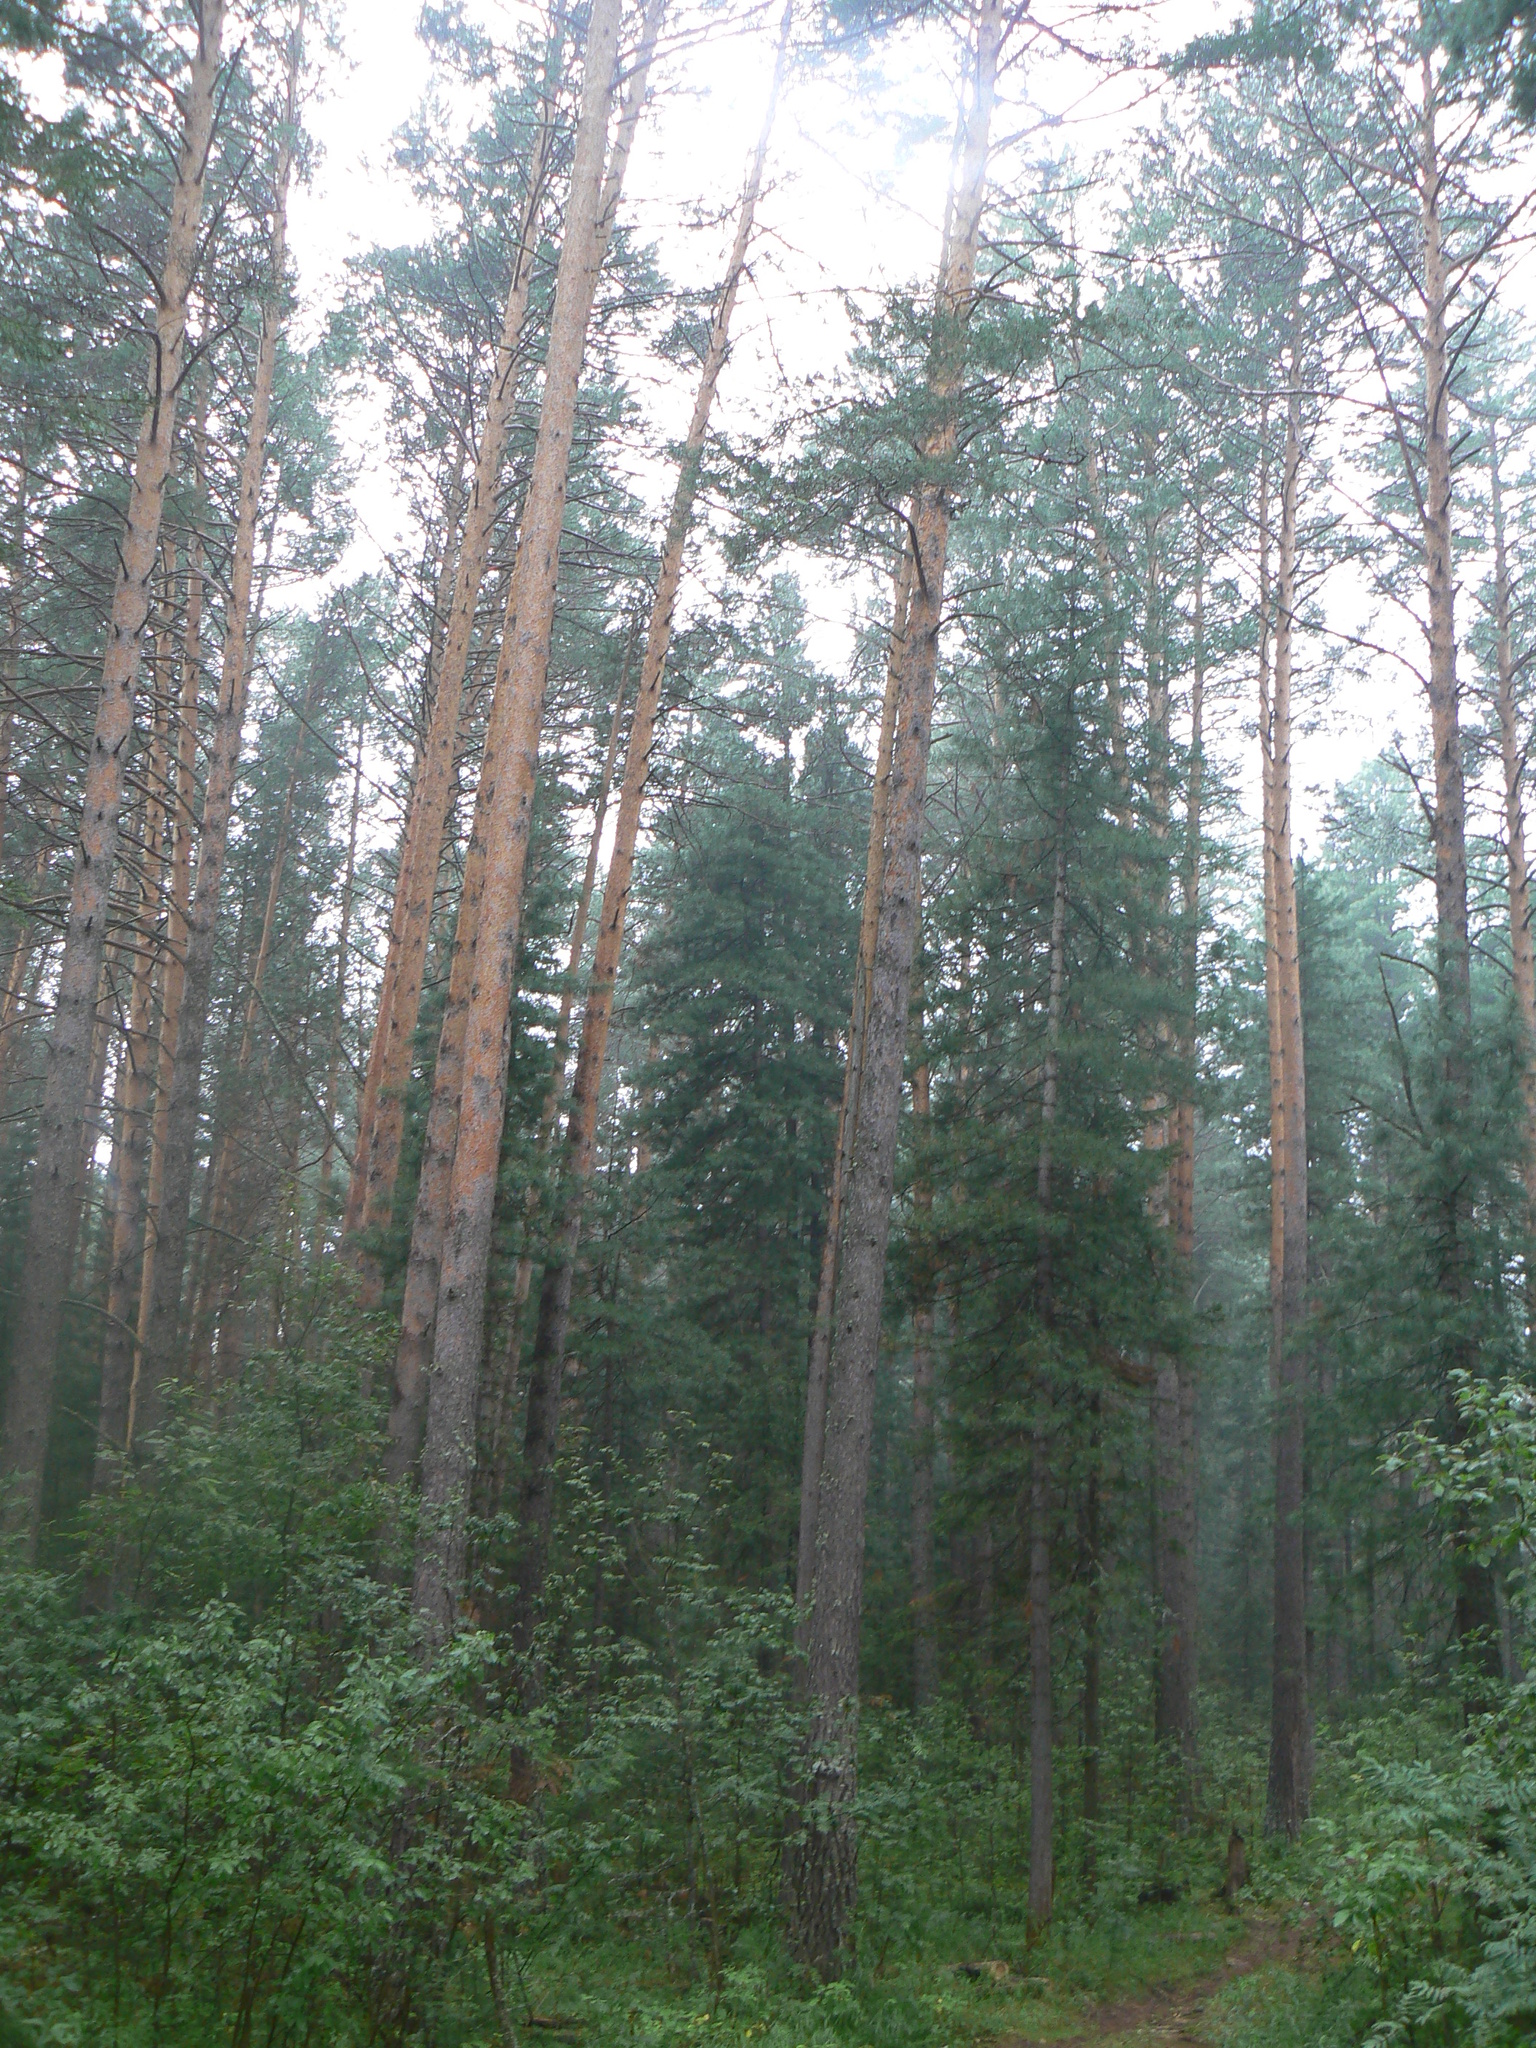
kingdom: Plantae
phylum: Tracheophyta
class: Pinopsida
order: Pinales
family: Pinaceae
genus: Pinus
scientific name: Pinus sylvestris
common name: Scots pine
